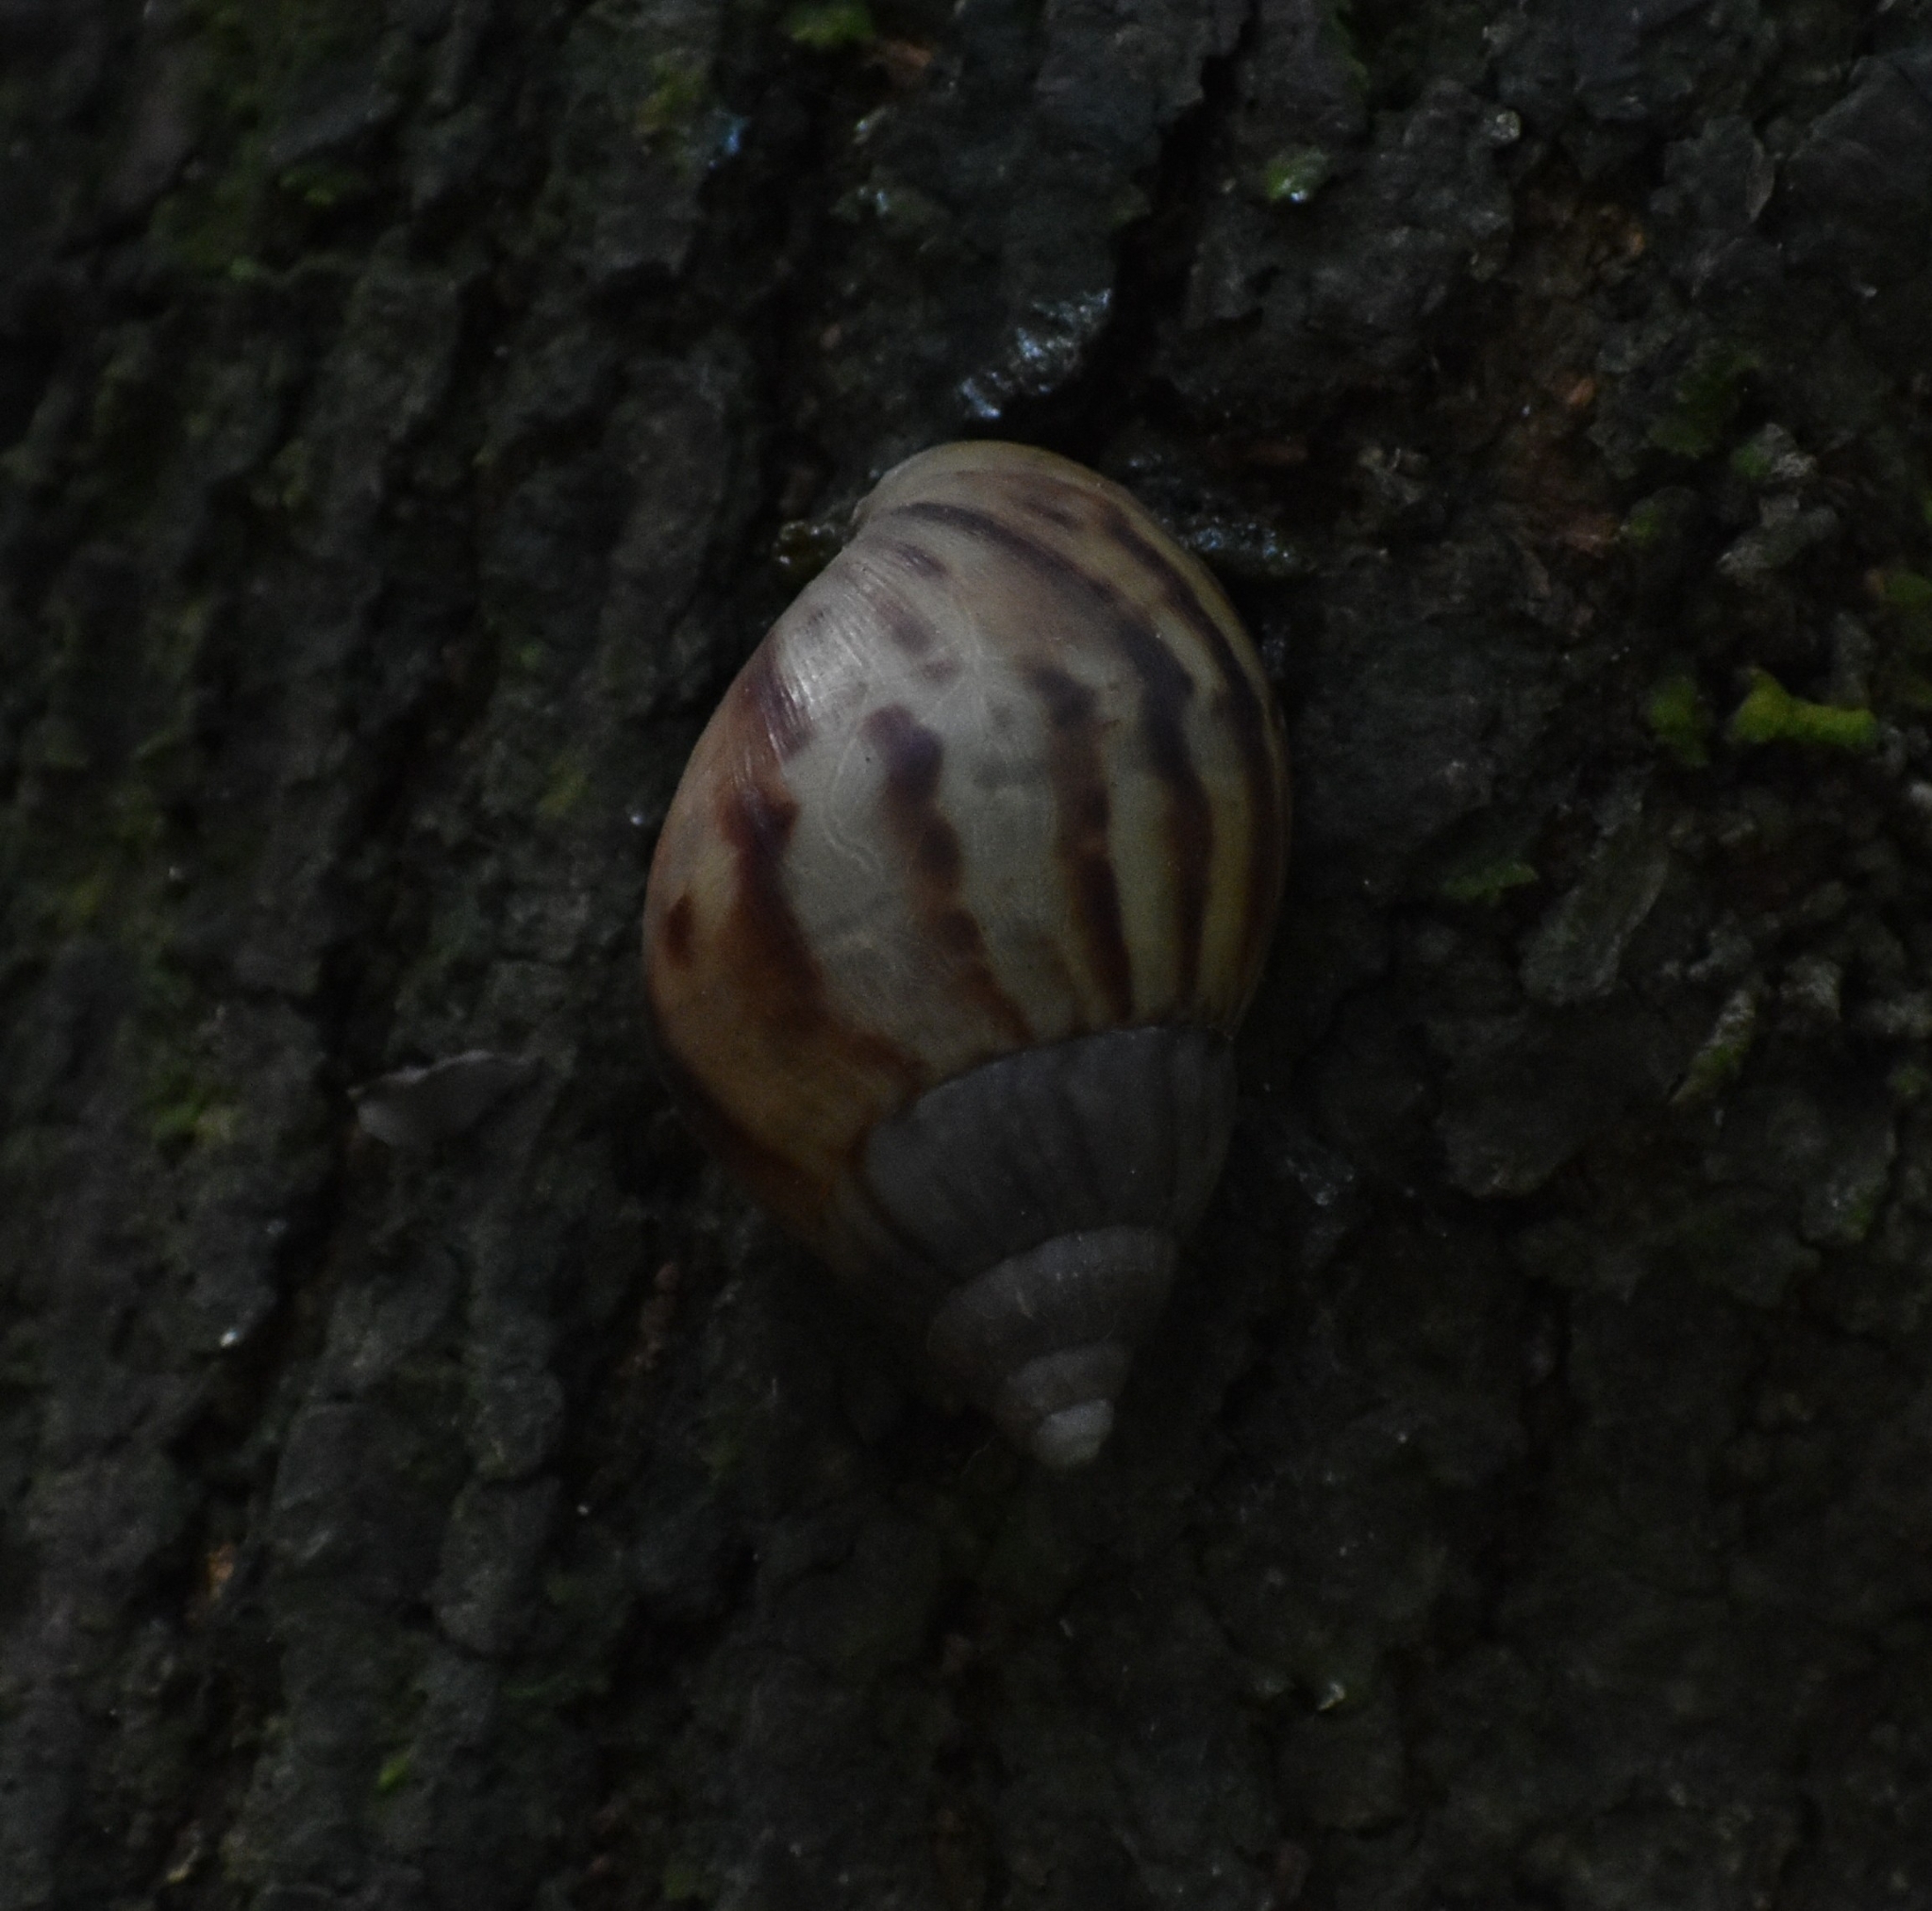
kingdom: Animalia
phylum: Mollusca
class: Gastropoda
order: Stylommatophora
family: Achatinidae
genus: Lissachatina
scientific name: Lissachatina fulica
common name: Giant african snail
